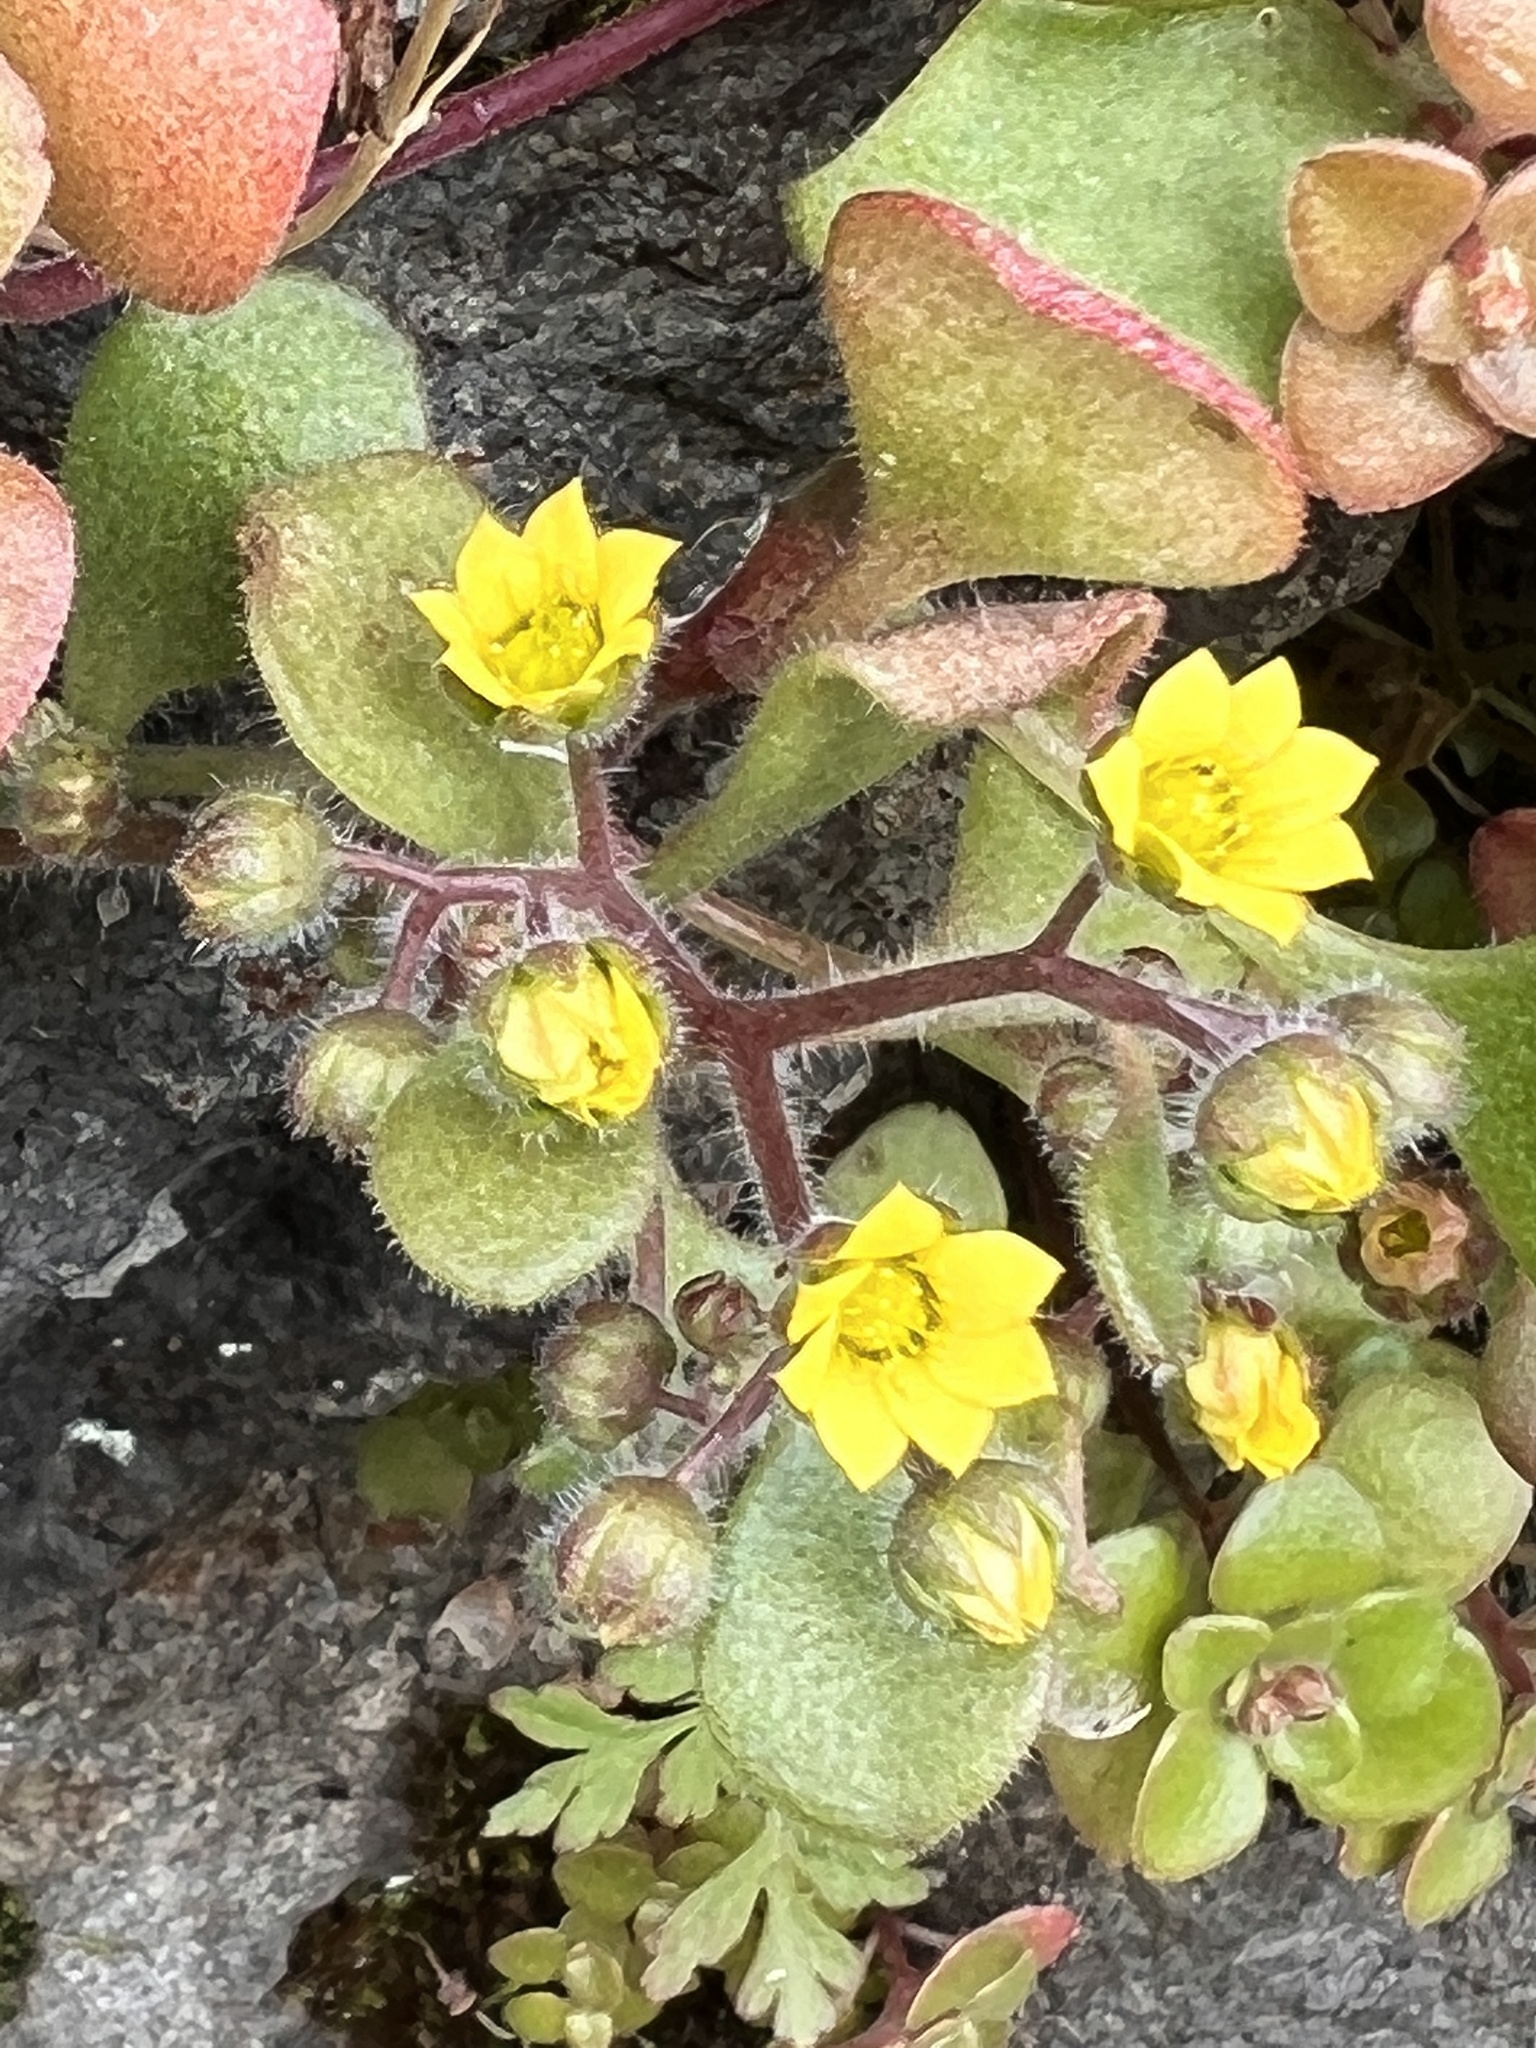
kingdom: Plantae
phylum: Tracheophyta
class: Magnoliopsida
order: Saxifragales
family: Crassulaceae
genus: Aichryson
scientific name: Aichryson villosum
